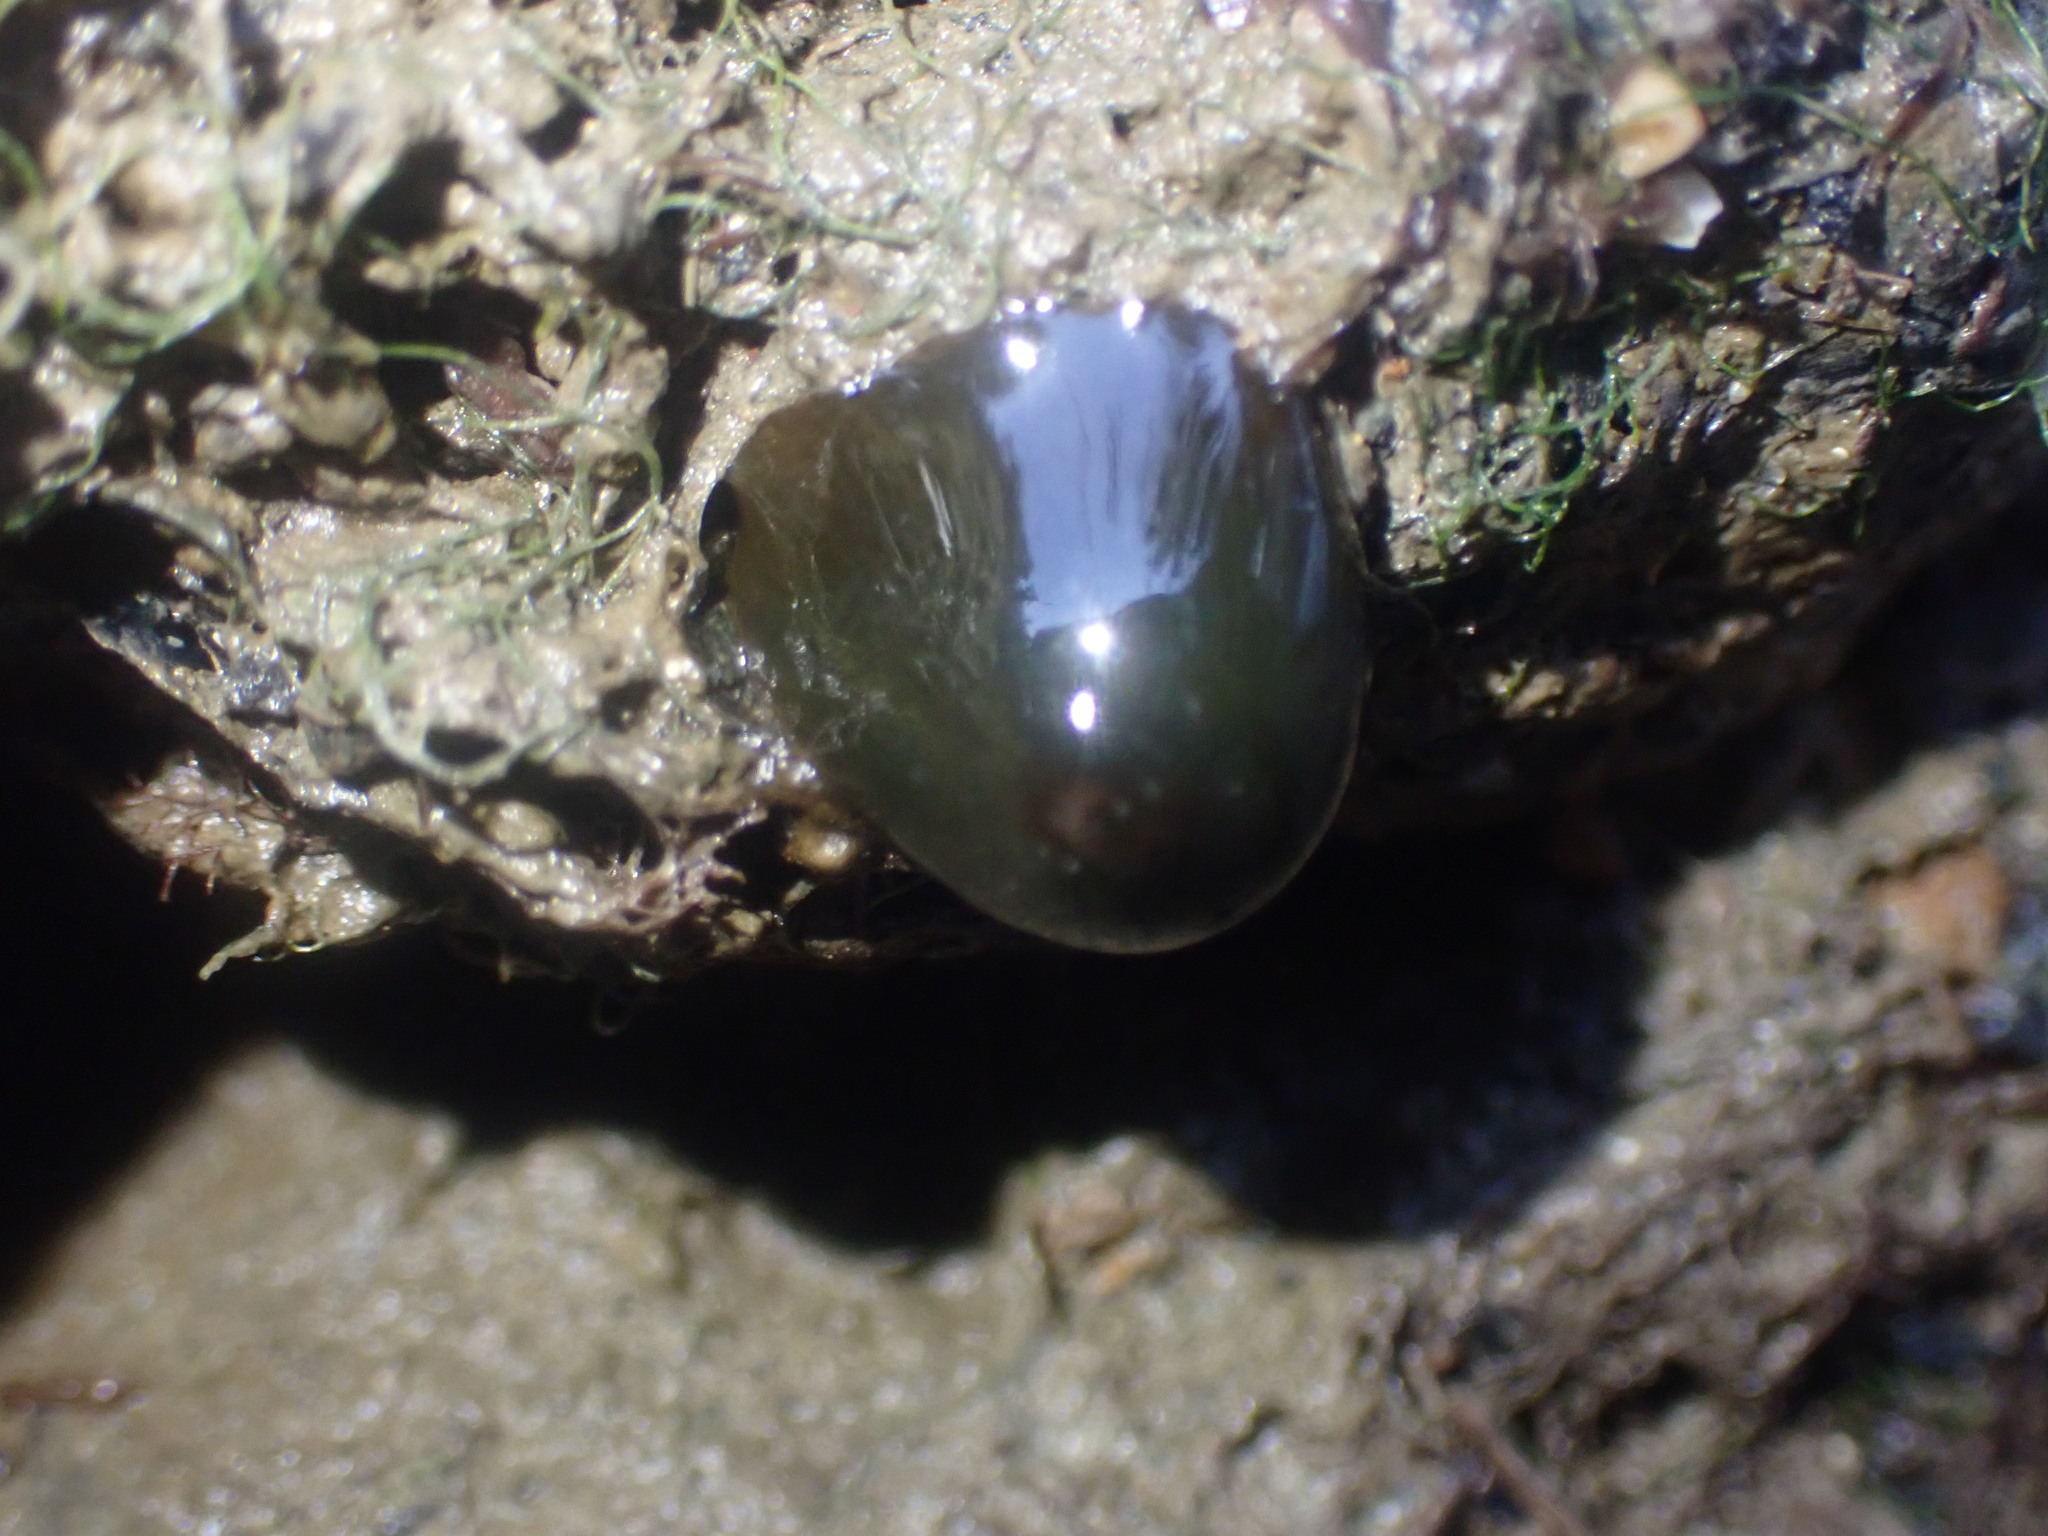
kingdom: Animalia
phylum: Cnidaria
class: Anthozoa
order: Actiniaria
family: Actiniidae
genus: Actinia
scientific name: Actinia tenebrosa
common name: Waratah anemone
